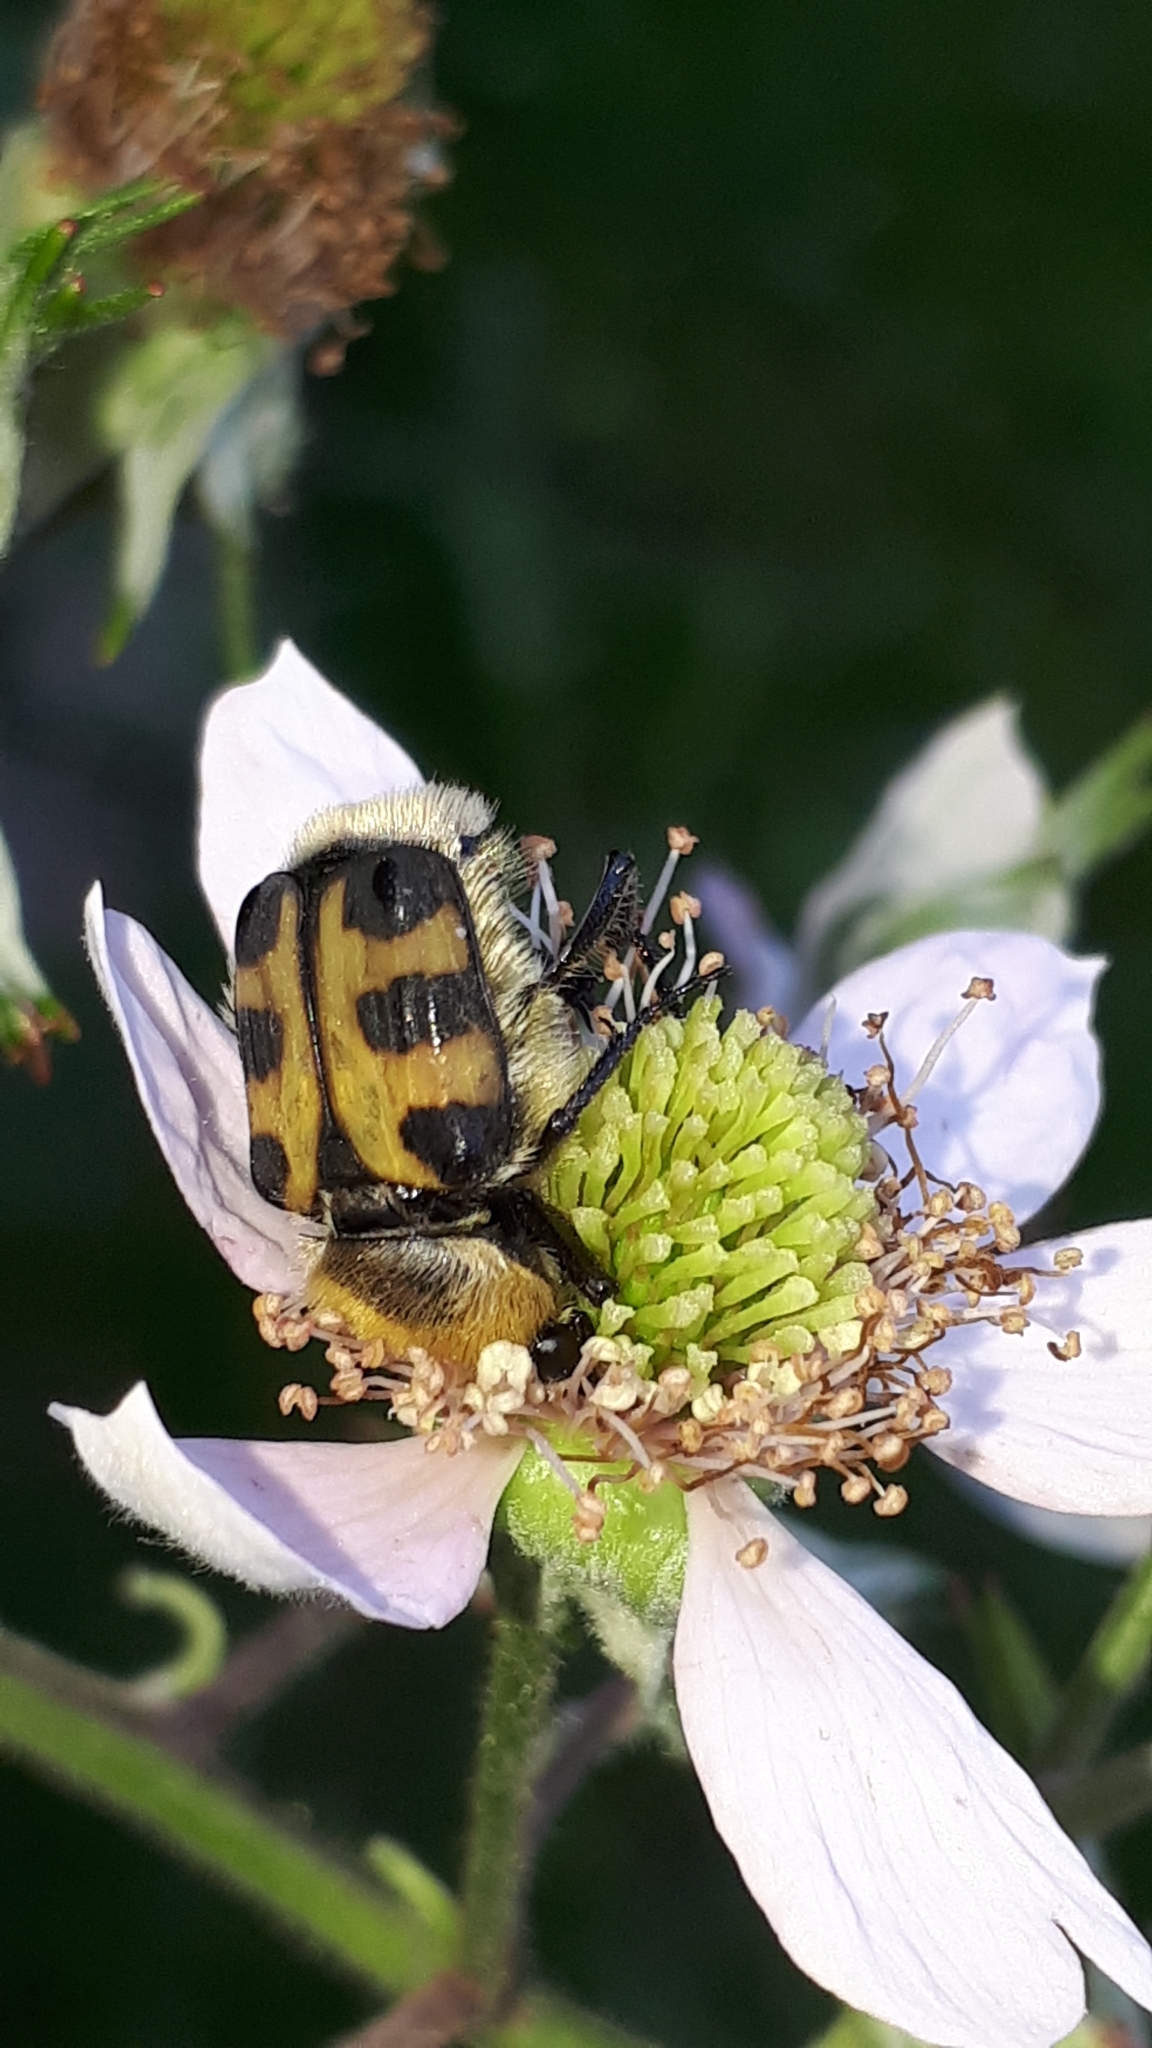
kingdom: Animalia
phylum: Arthropoda
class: Insecta
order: Coleoptera
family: Scarabaeidae
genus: Trichius
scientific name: Trichius gallicus
